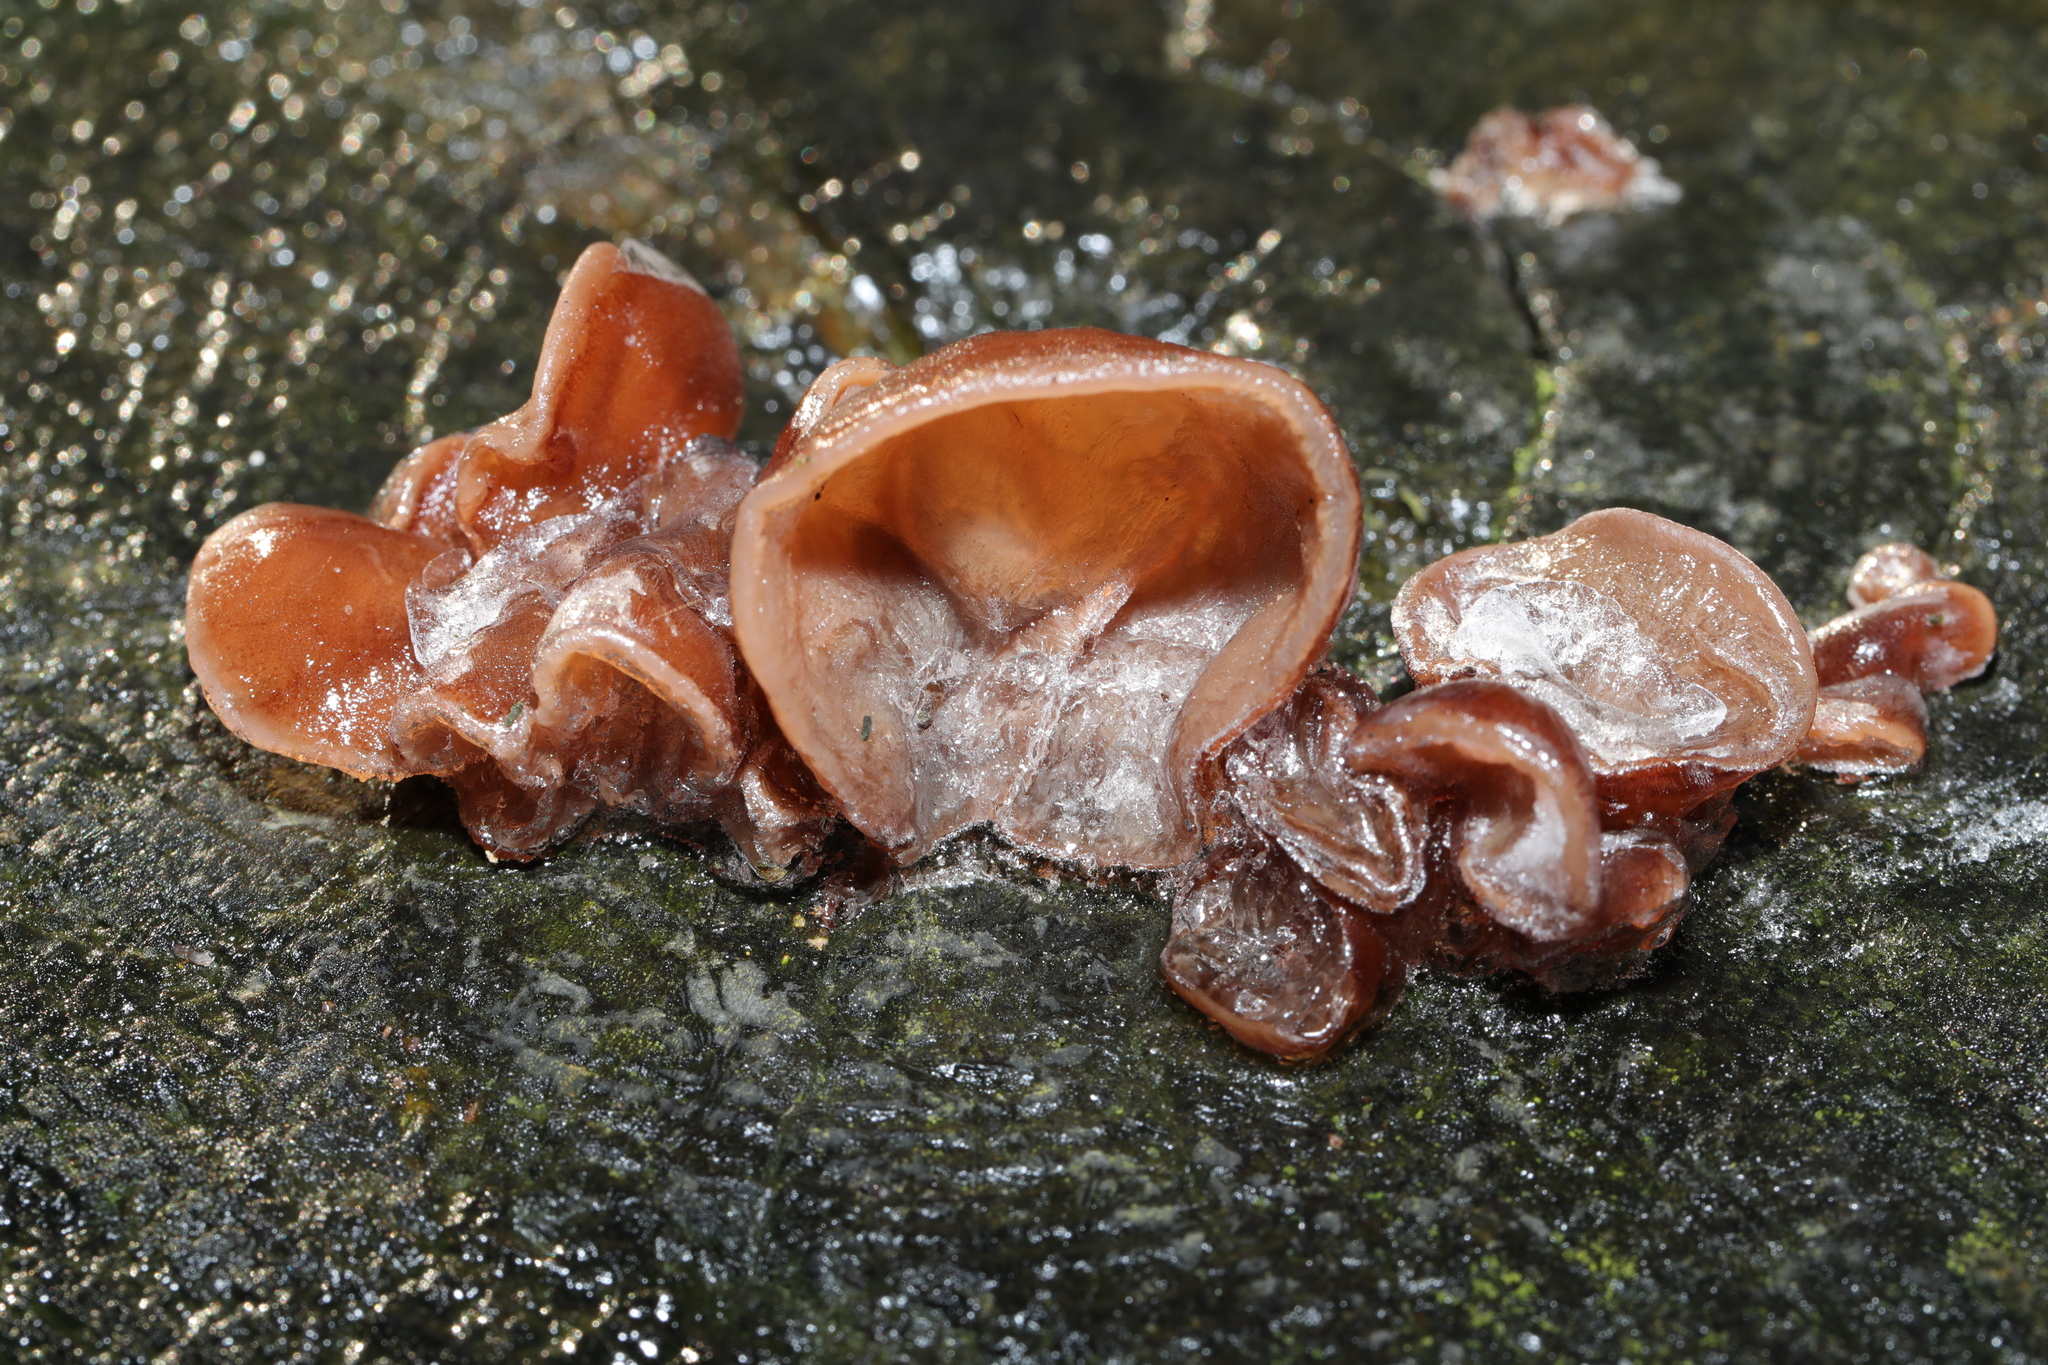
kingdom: Fungi
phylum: Basidiomycota
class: Agaricomycetes
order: Auriculariales
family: Auriculariaceae
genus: Auricularia
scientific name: Auricularia auricula-judae
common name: Jelly ear
